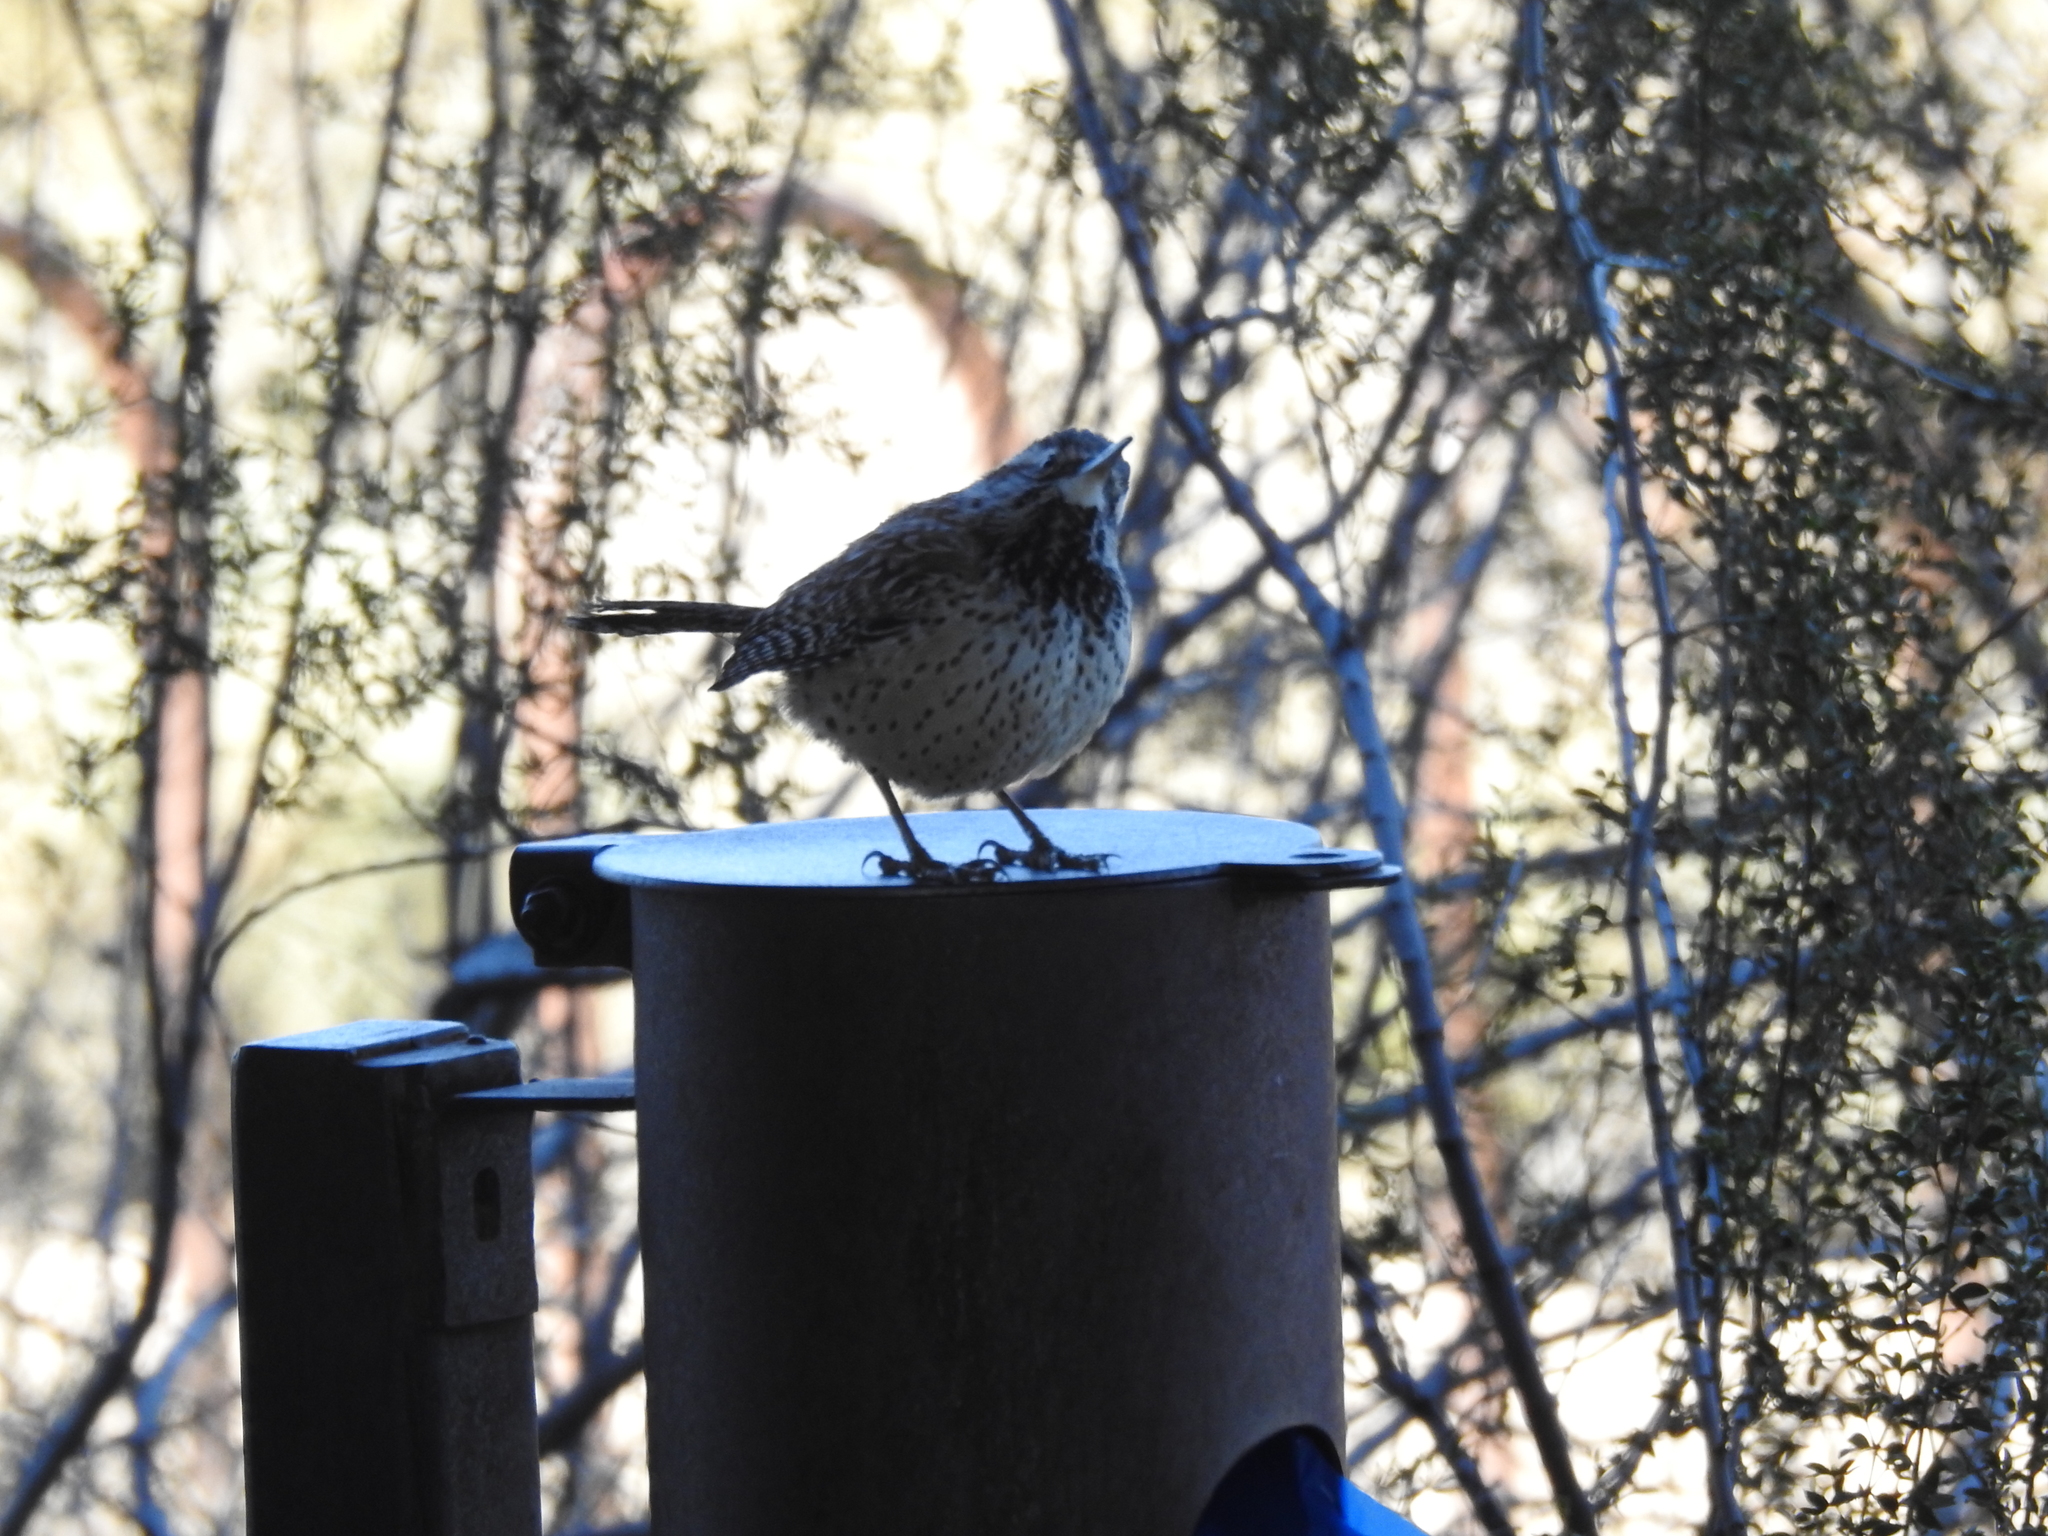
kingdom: Animalia
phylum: Chordata
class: Aves
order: Passeriformes
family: Troglodytidae
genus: Campylorhynchus
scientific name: Campylorhynchus brunneicapillus
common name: Cactus wren
